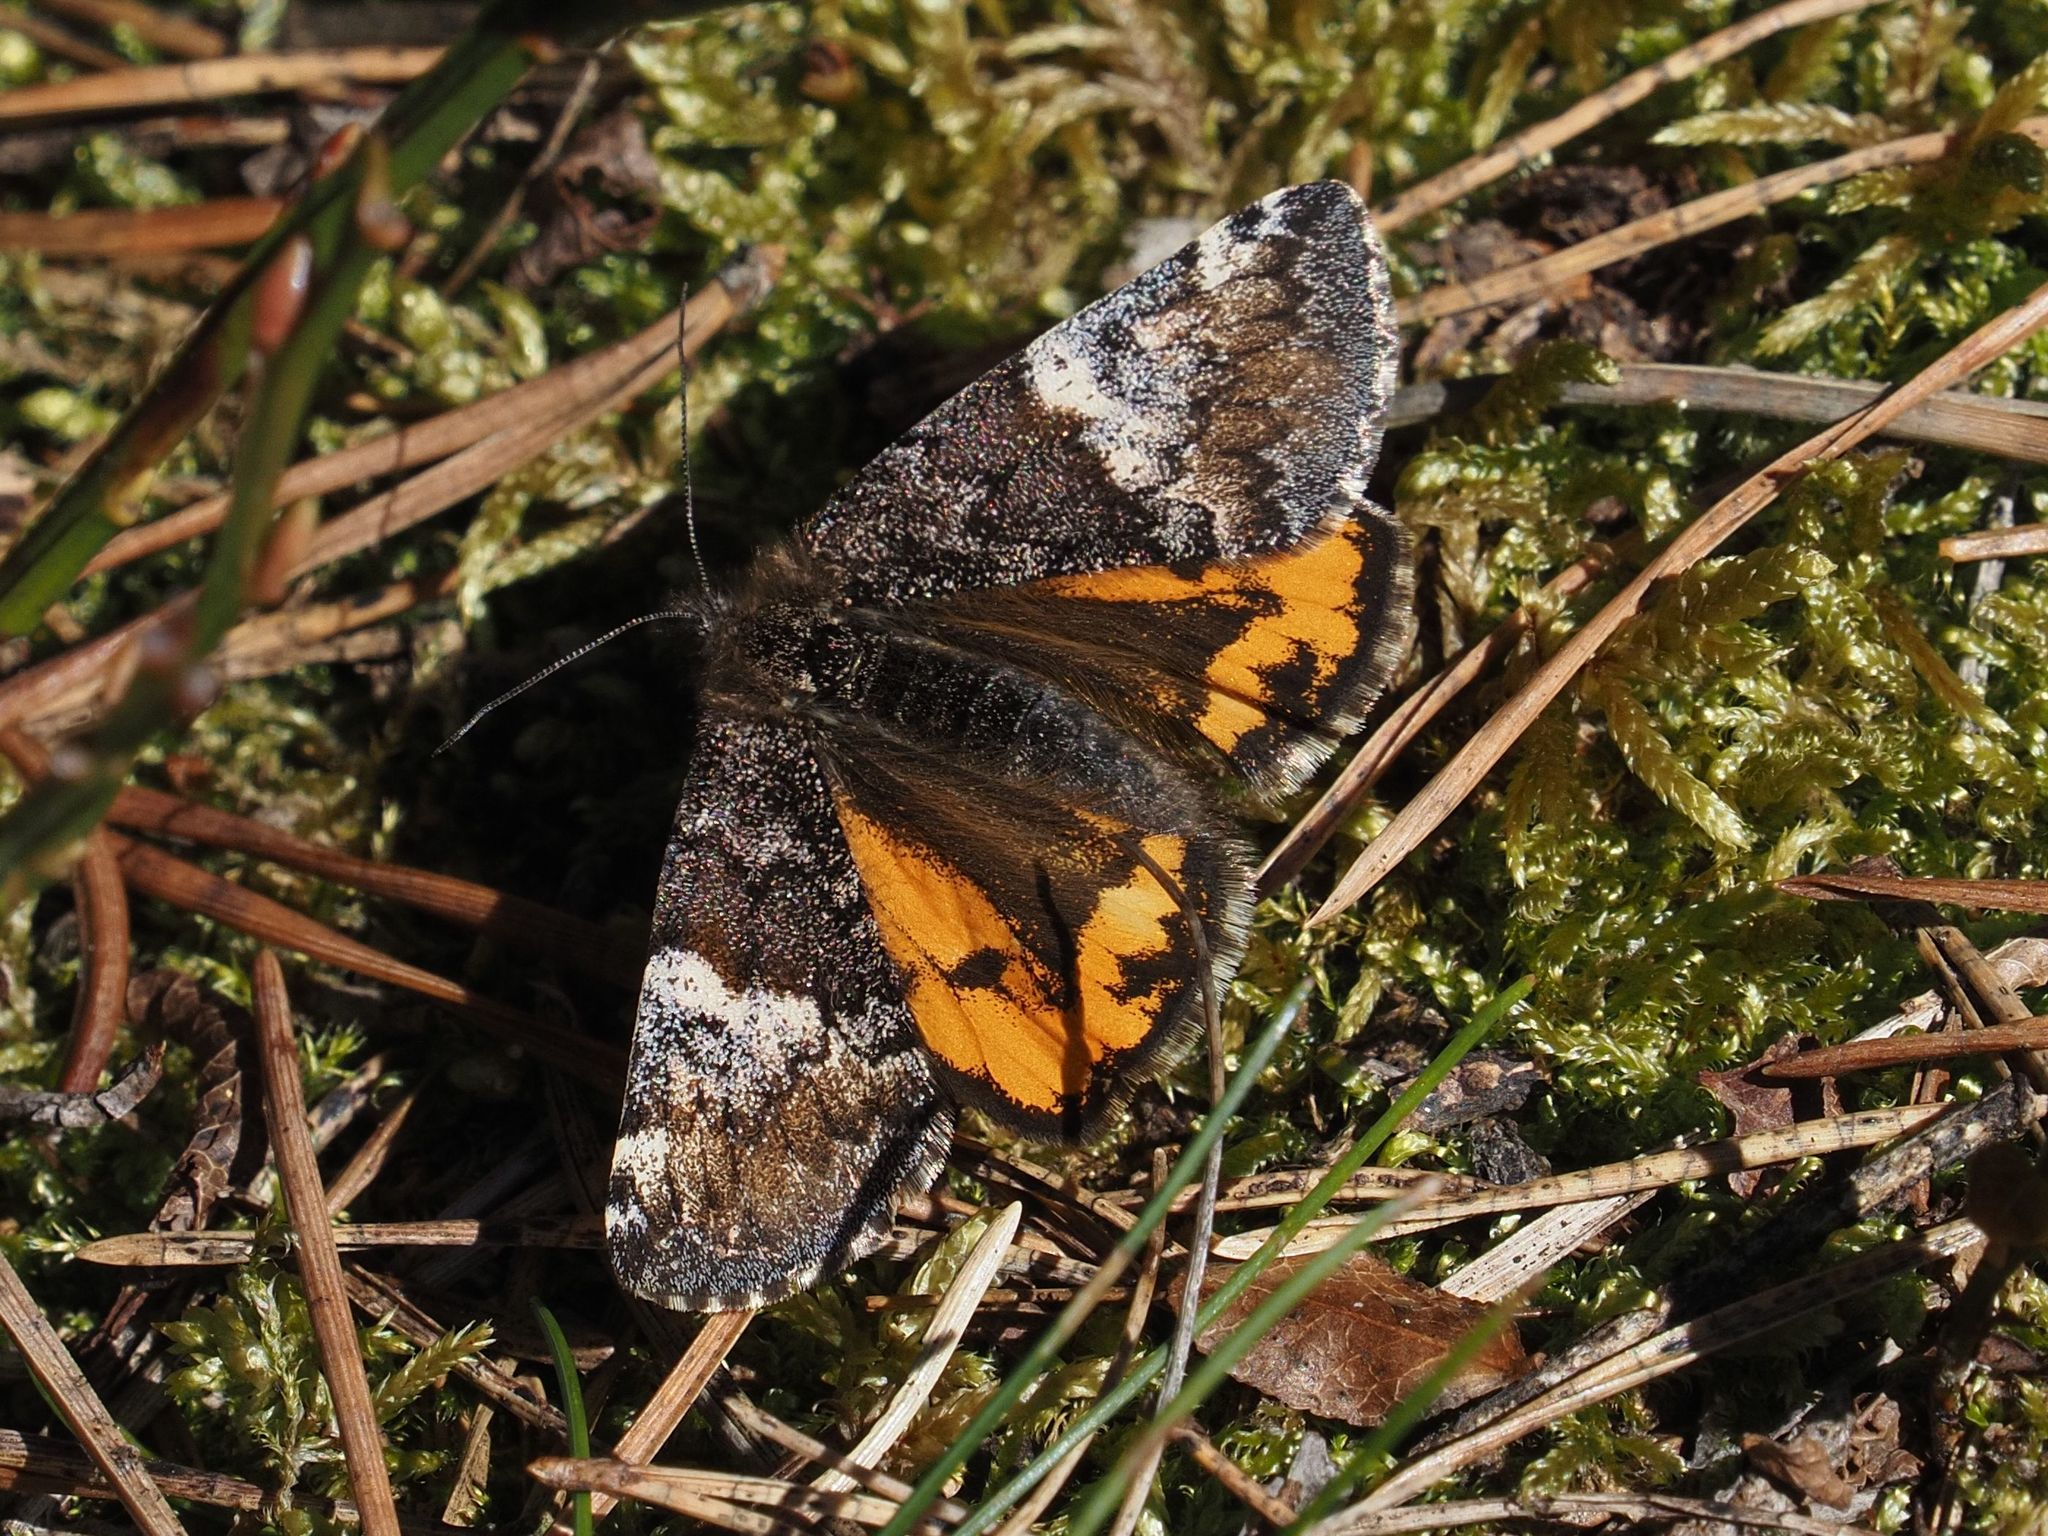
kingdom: Animalia
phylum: Arthropoda
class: Insecta
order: Lepidoptera
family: Geometridae
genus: Archiearis
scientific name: Archiearis parthenias
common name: Orange underwing
